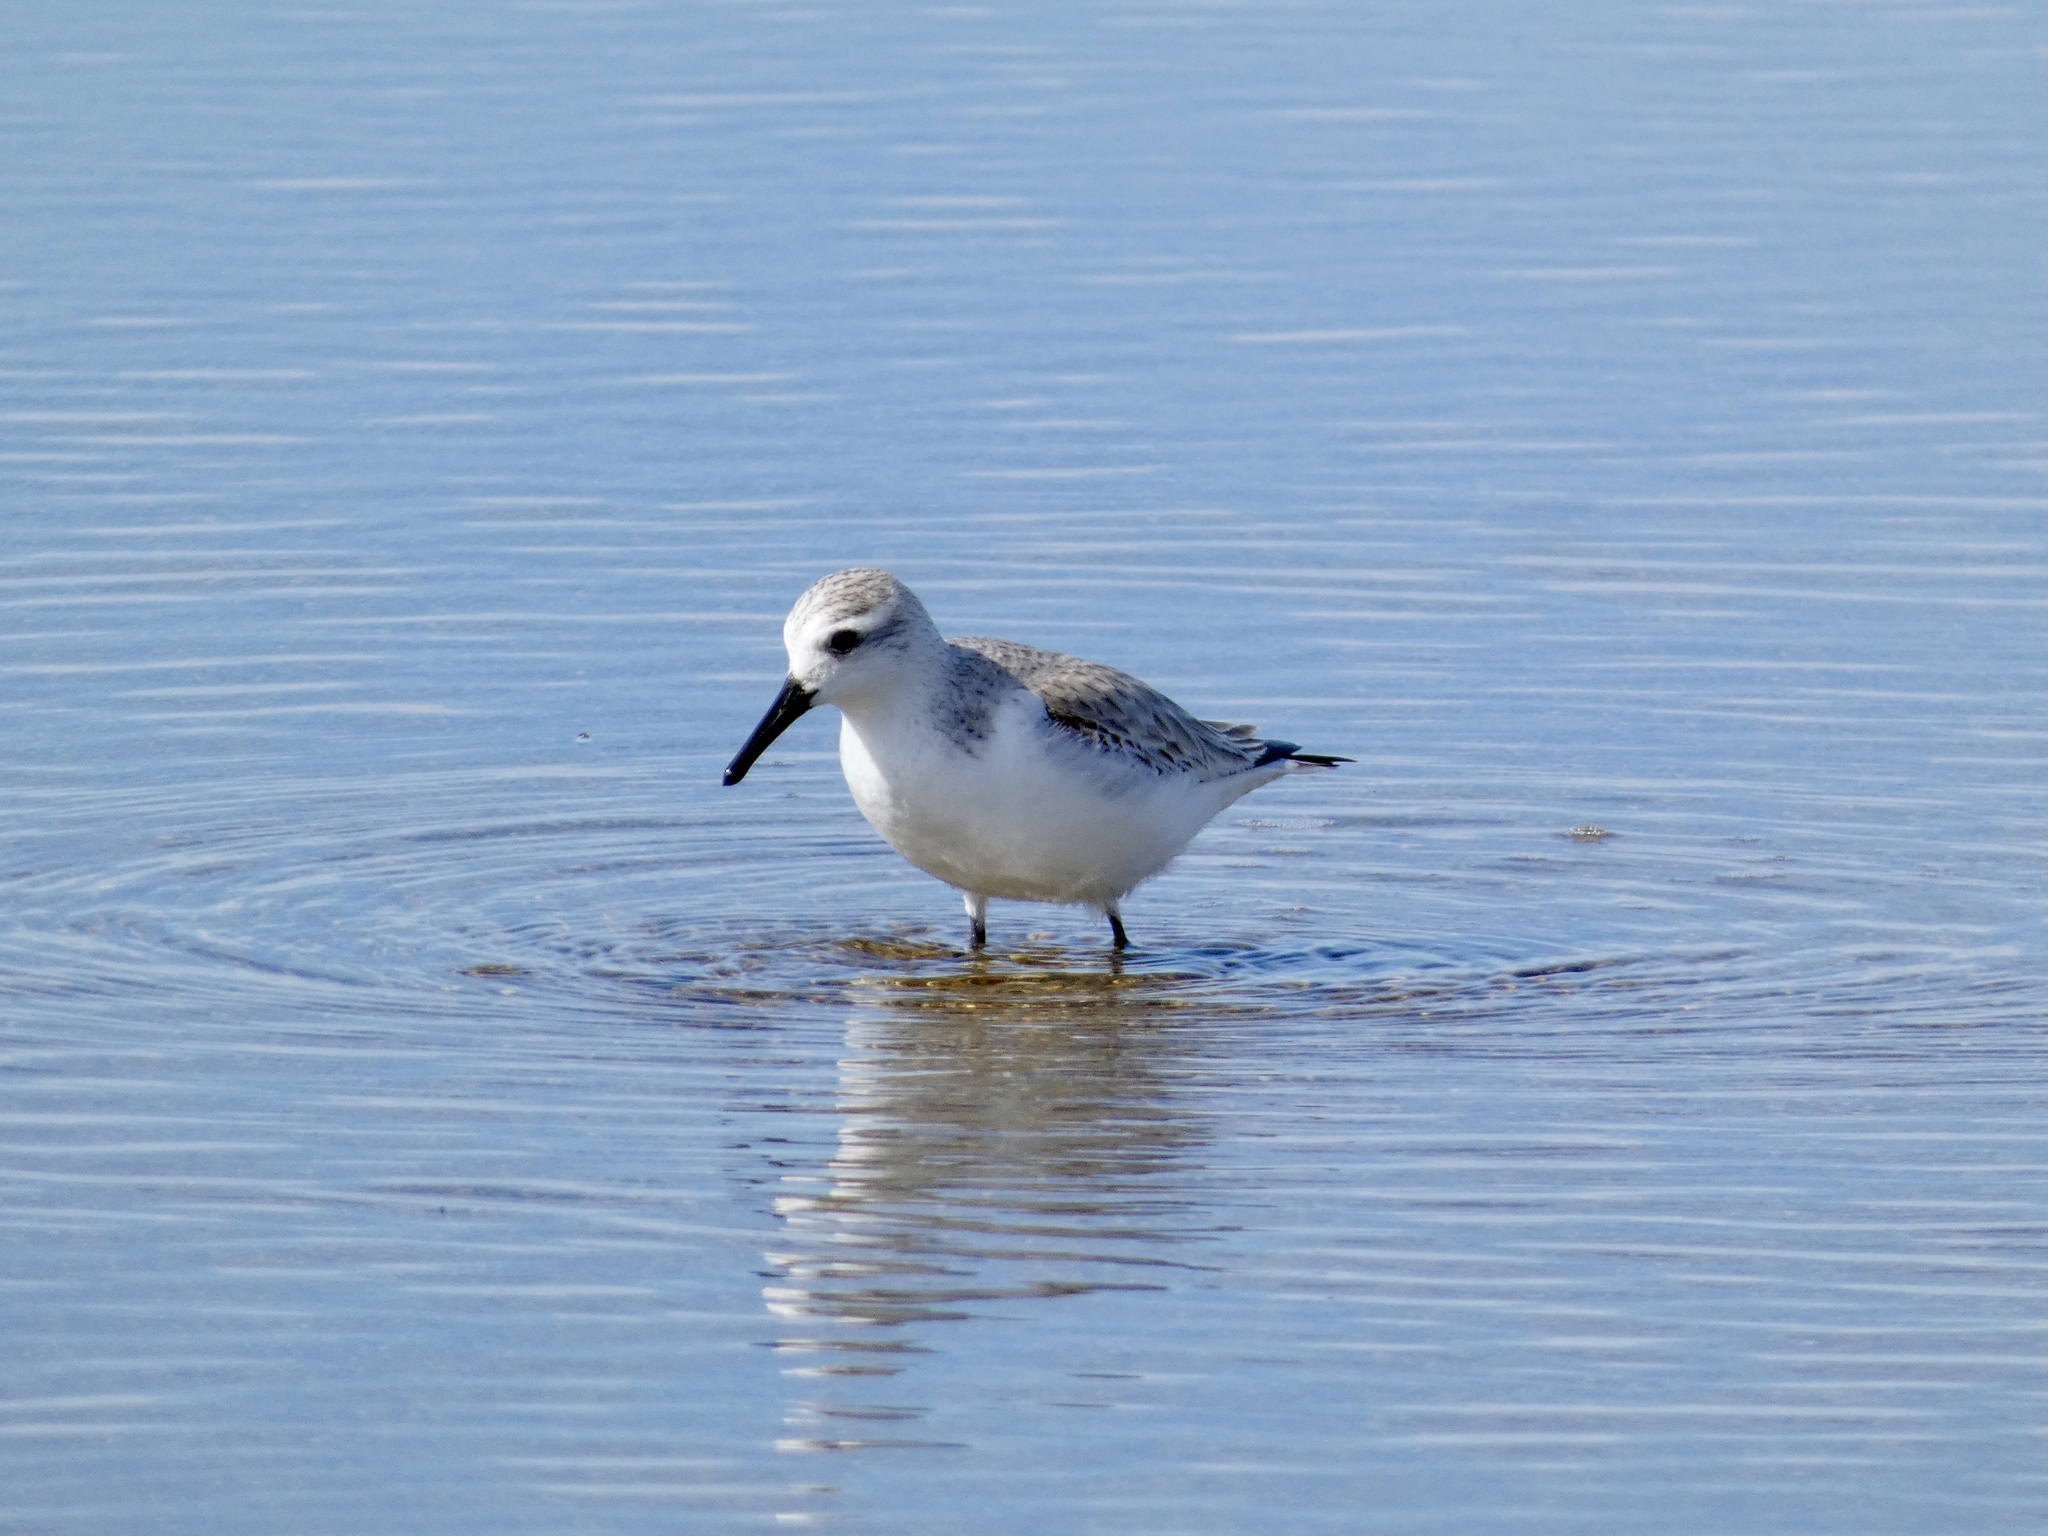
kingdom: Animalia
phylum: Chordata
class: Aves
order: Charadriiformes
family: Scolopacidae
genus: Calidris
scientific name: Calidris alba
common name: Sanderling
